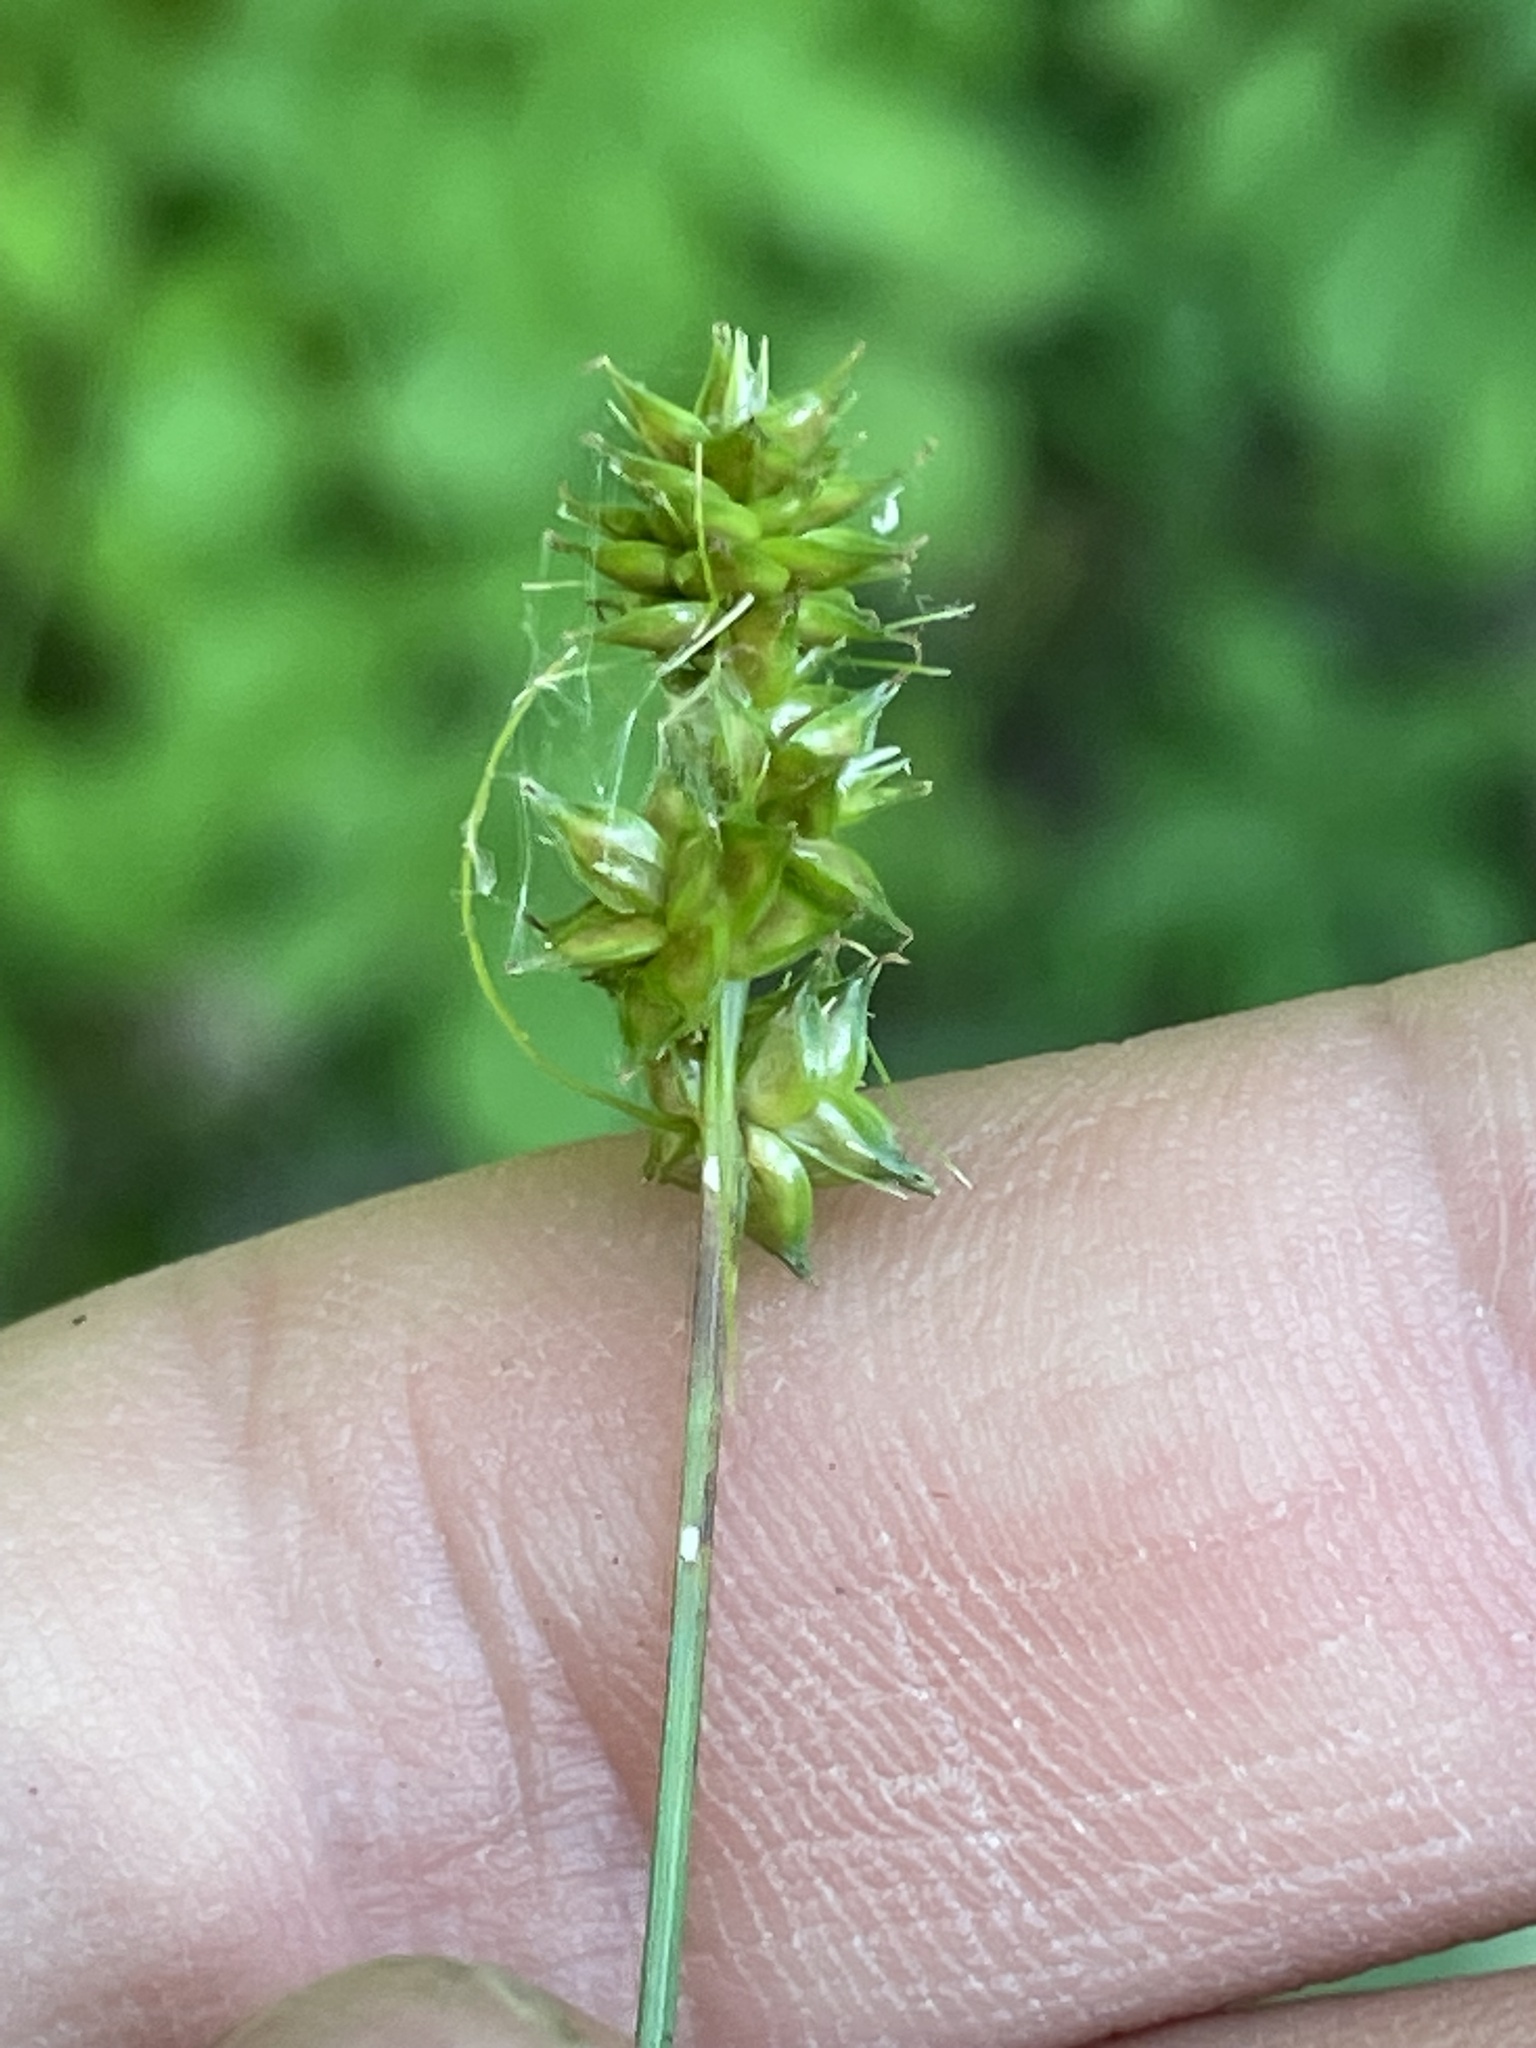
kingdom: Plantae
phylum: Tracheophyta
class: Liliopsida
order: Poales
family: Cyperaceae
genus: Carex
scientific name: Carex texensis
